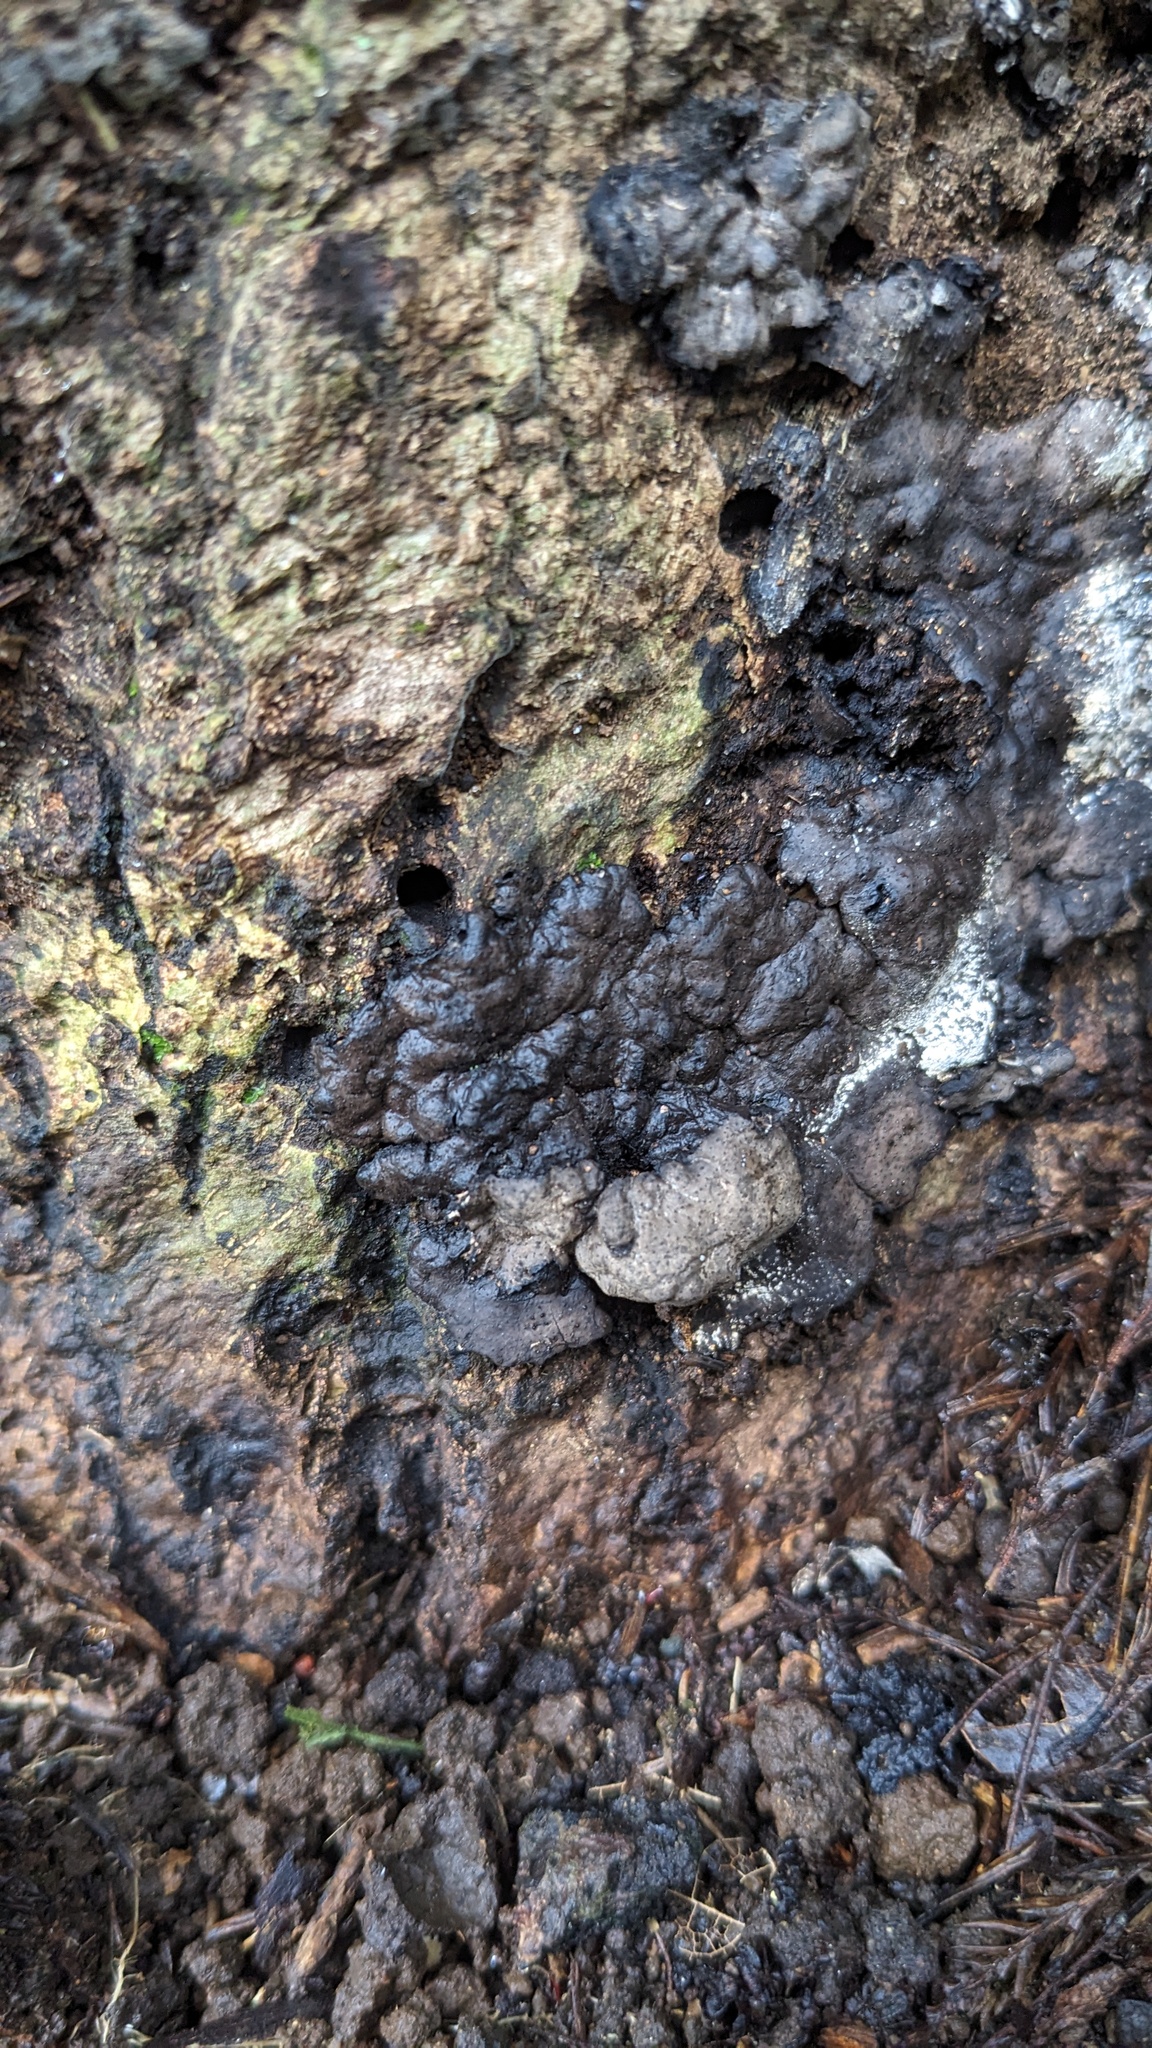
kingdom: Fungi
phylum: Ascomycota
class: Sordariomycetes
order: Xylariales
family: Xylariaceae
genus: Kretzschmaria
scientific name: Kretzschmaria deusta
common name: Brittle cinder
